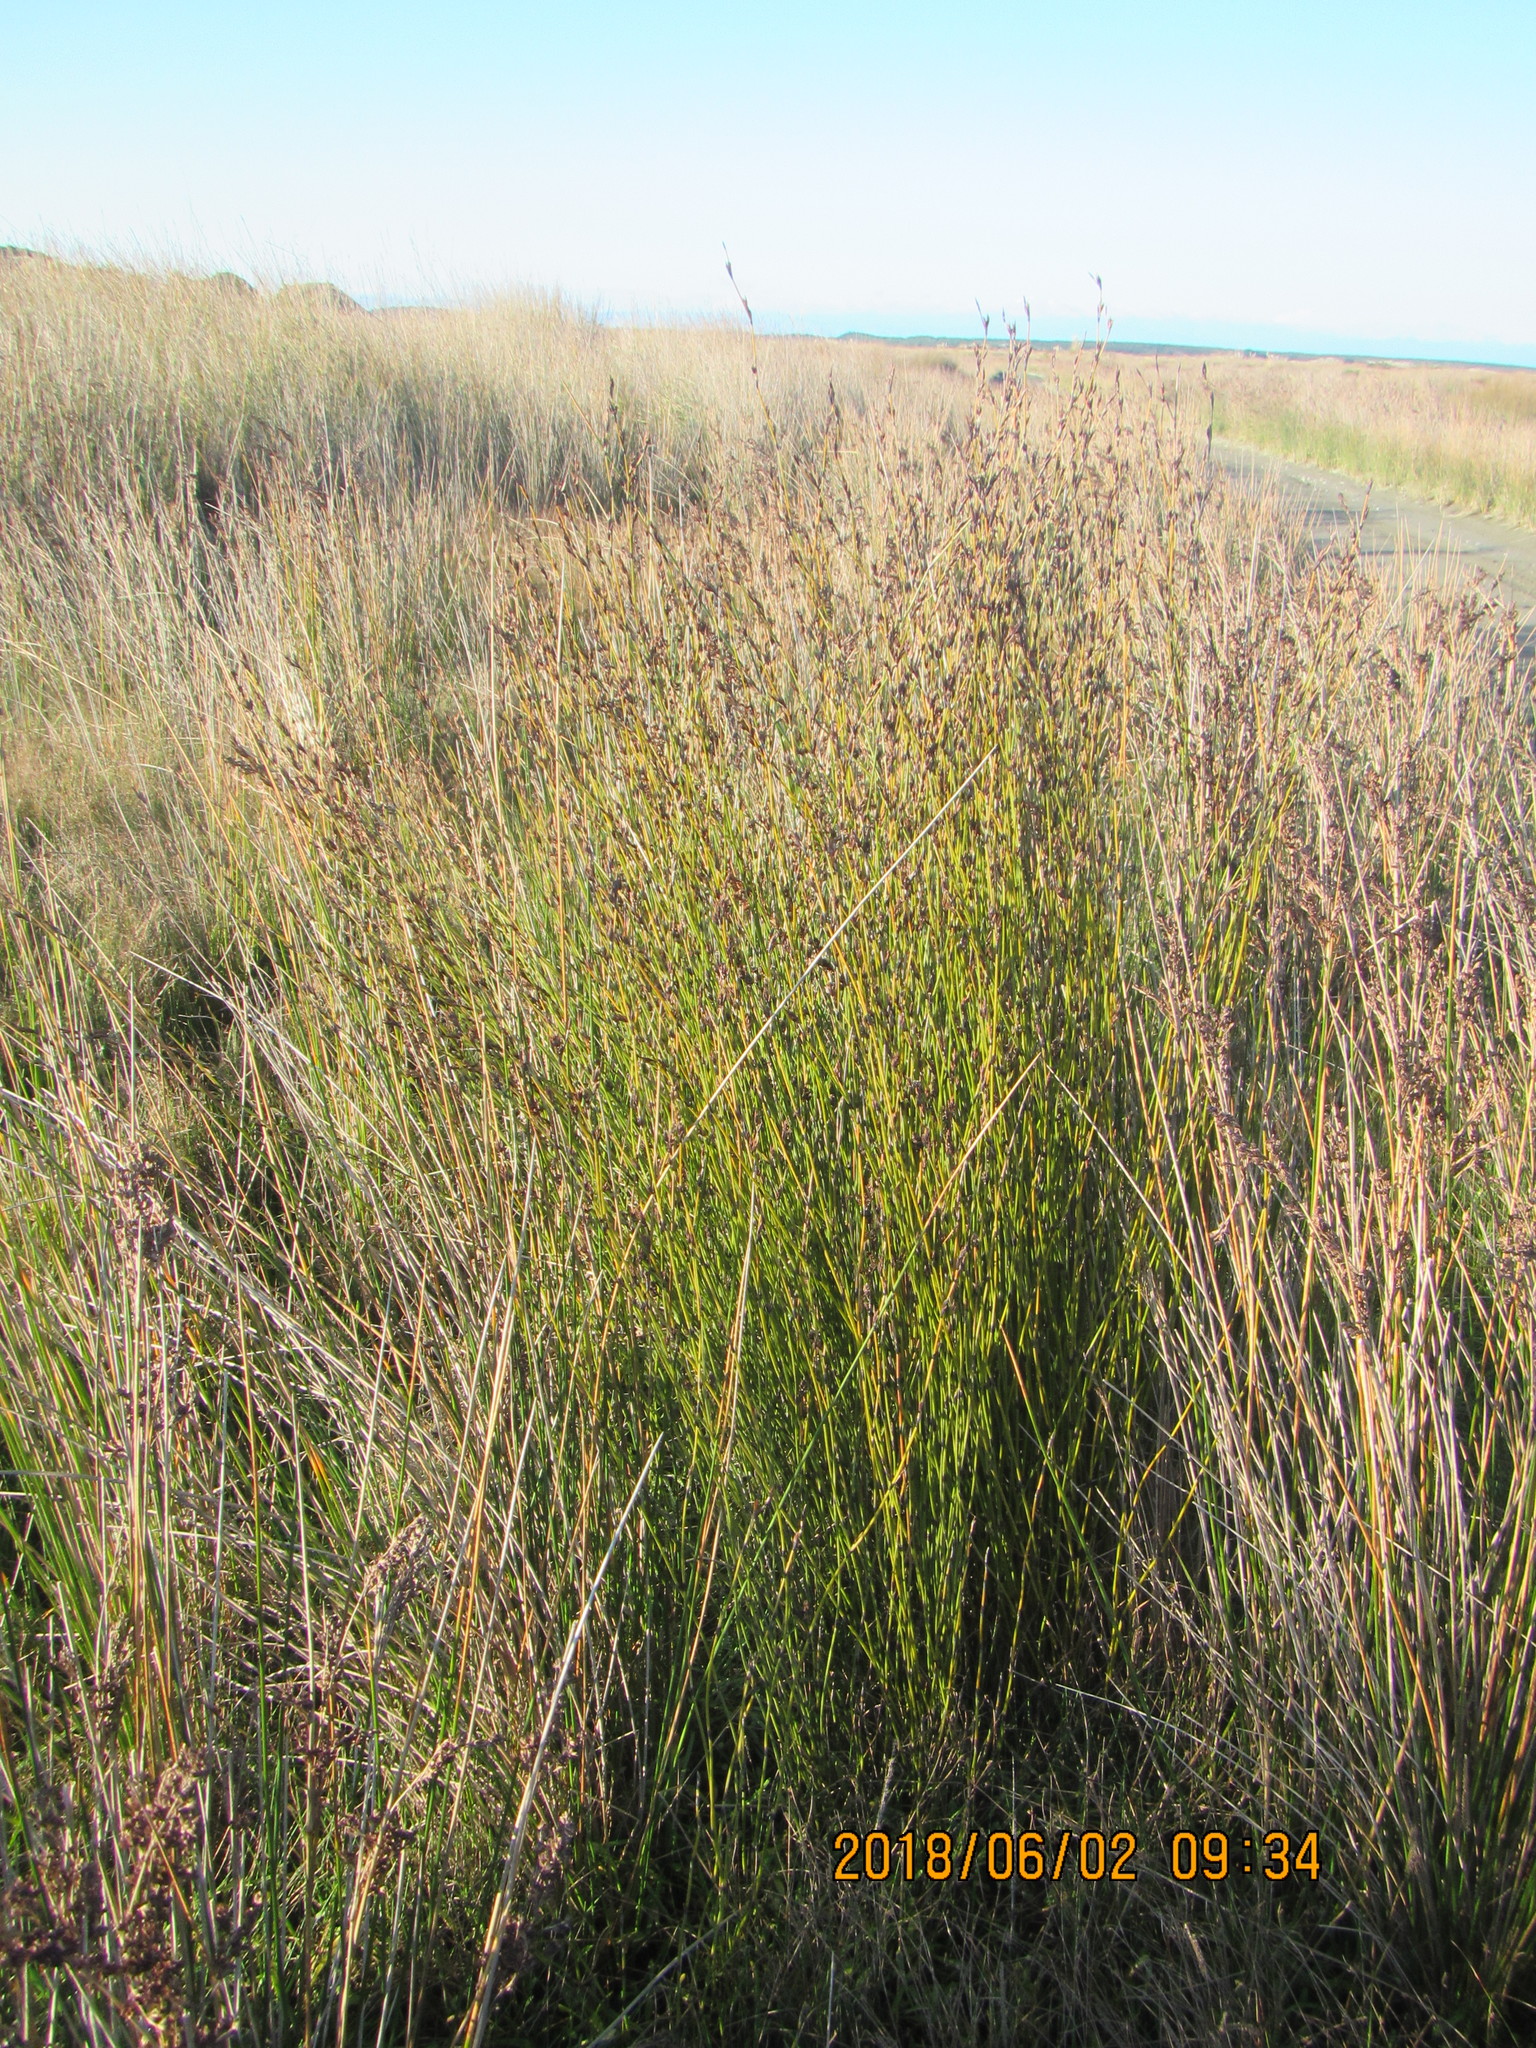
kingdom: Plantae
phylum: Tracheophyta
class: Liliopsida
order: Poales
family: Restionaceae
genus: Apodasmia
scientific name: Apodasmia similis
